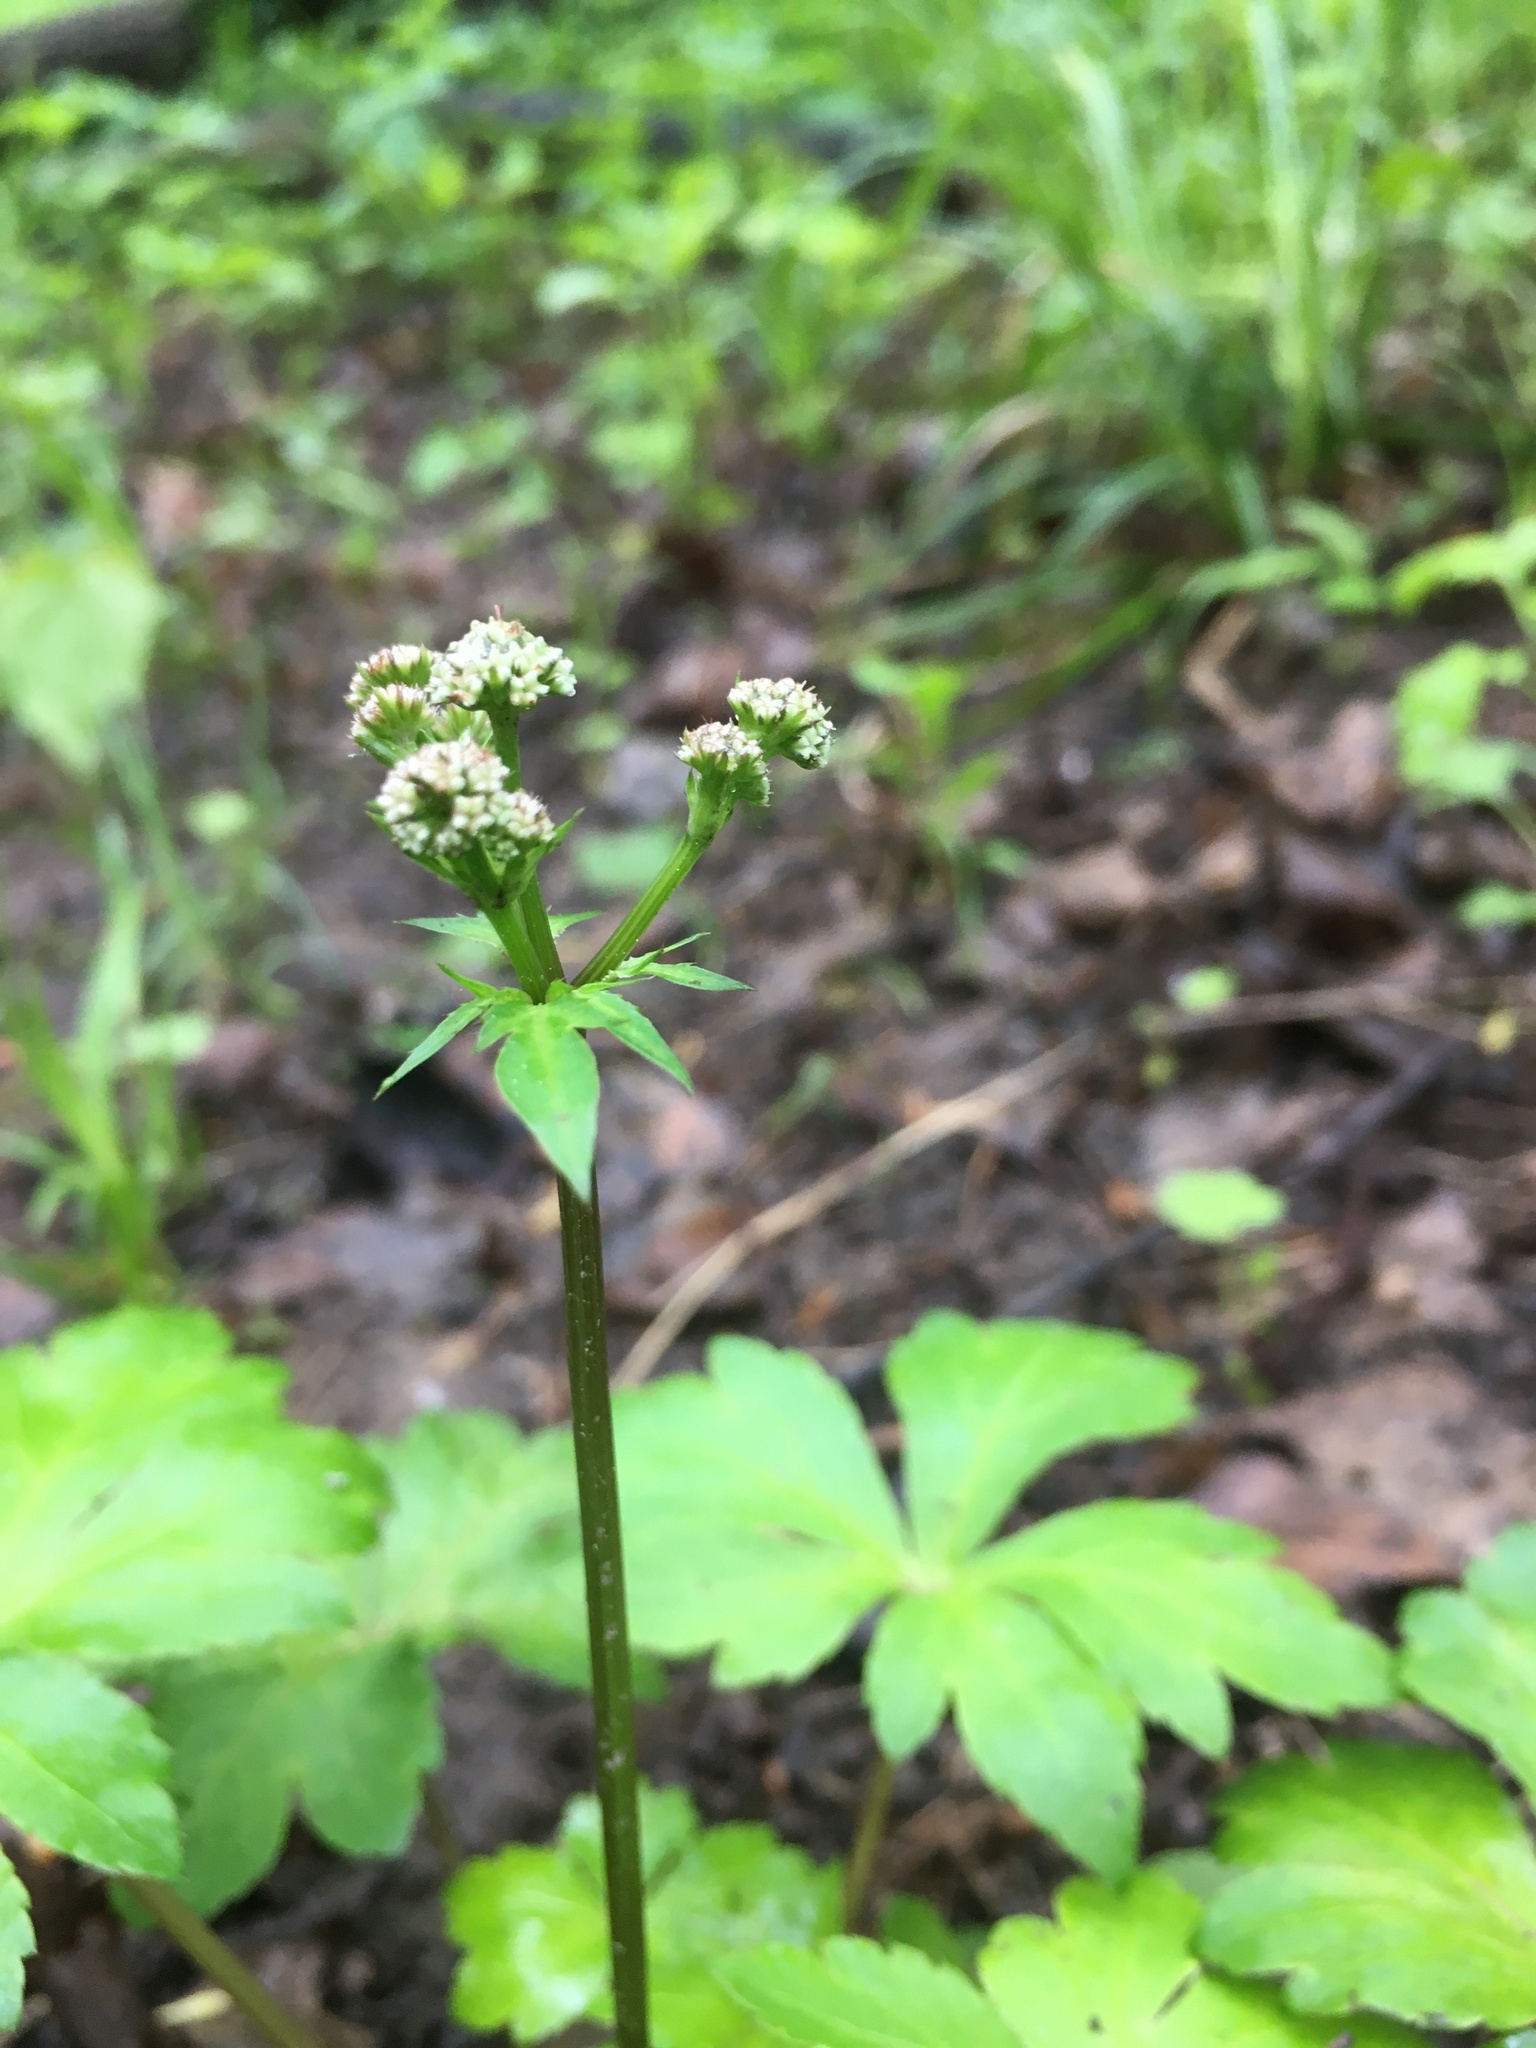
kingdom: Plantae
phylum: Tracheophyta
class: Magnoliopsida
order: Apiales
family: Apiaceae
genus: Sanicula
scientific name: Sanicula europaea
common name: Sanicle
